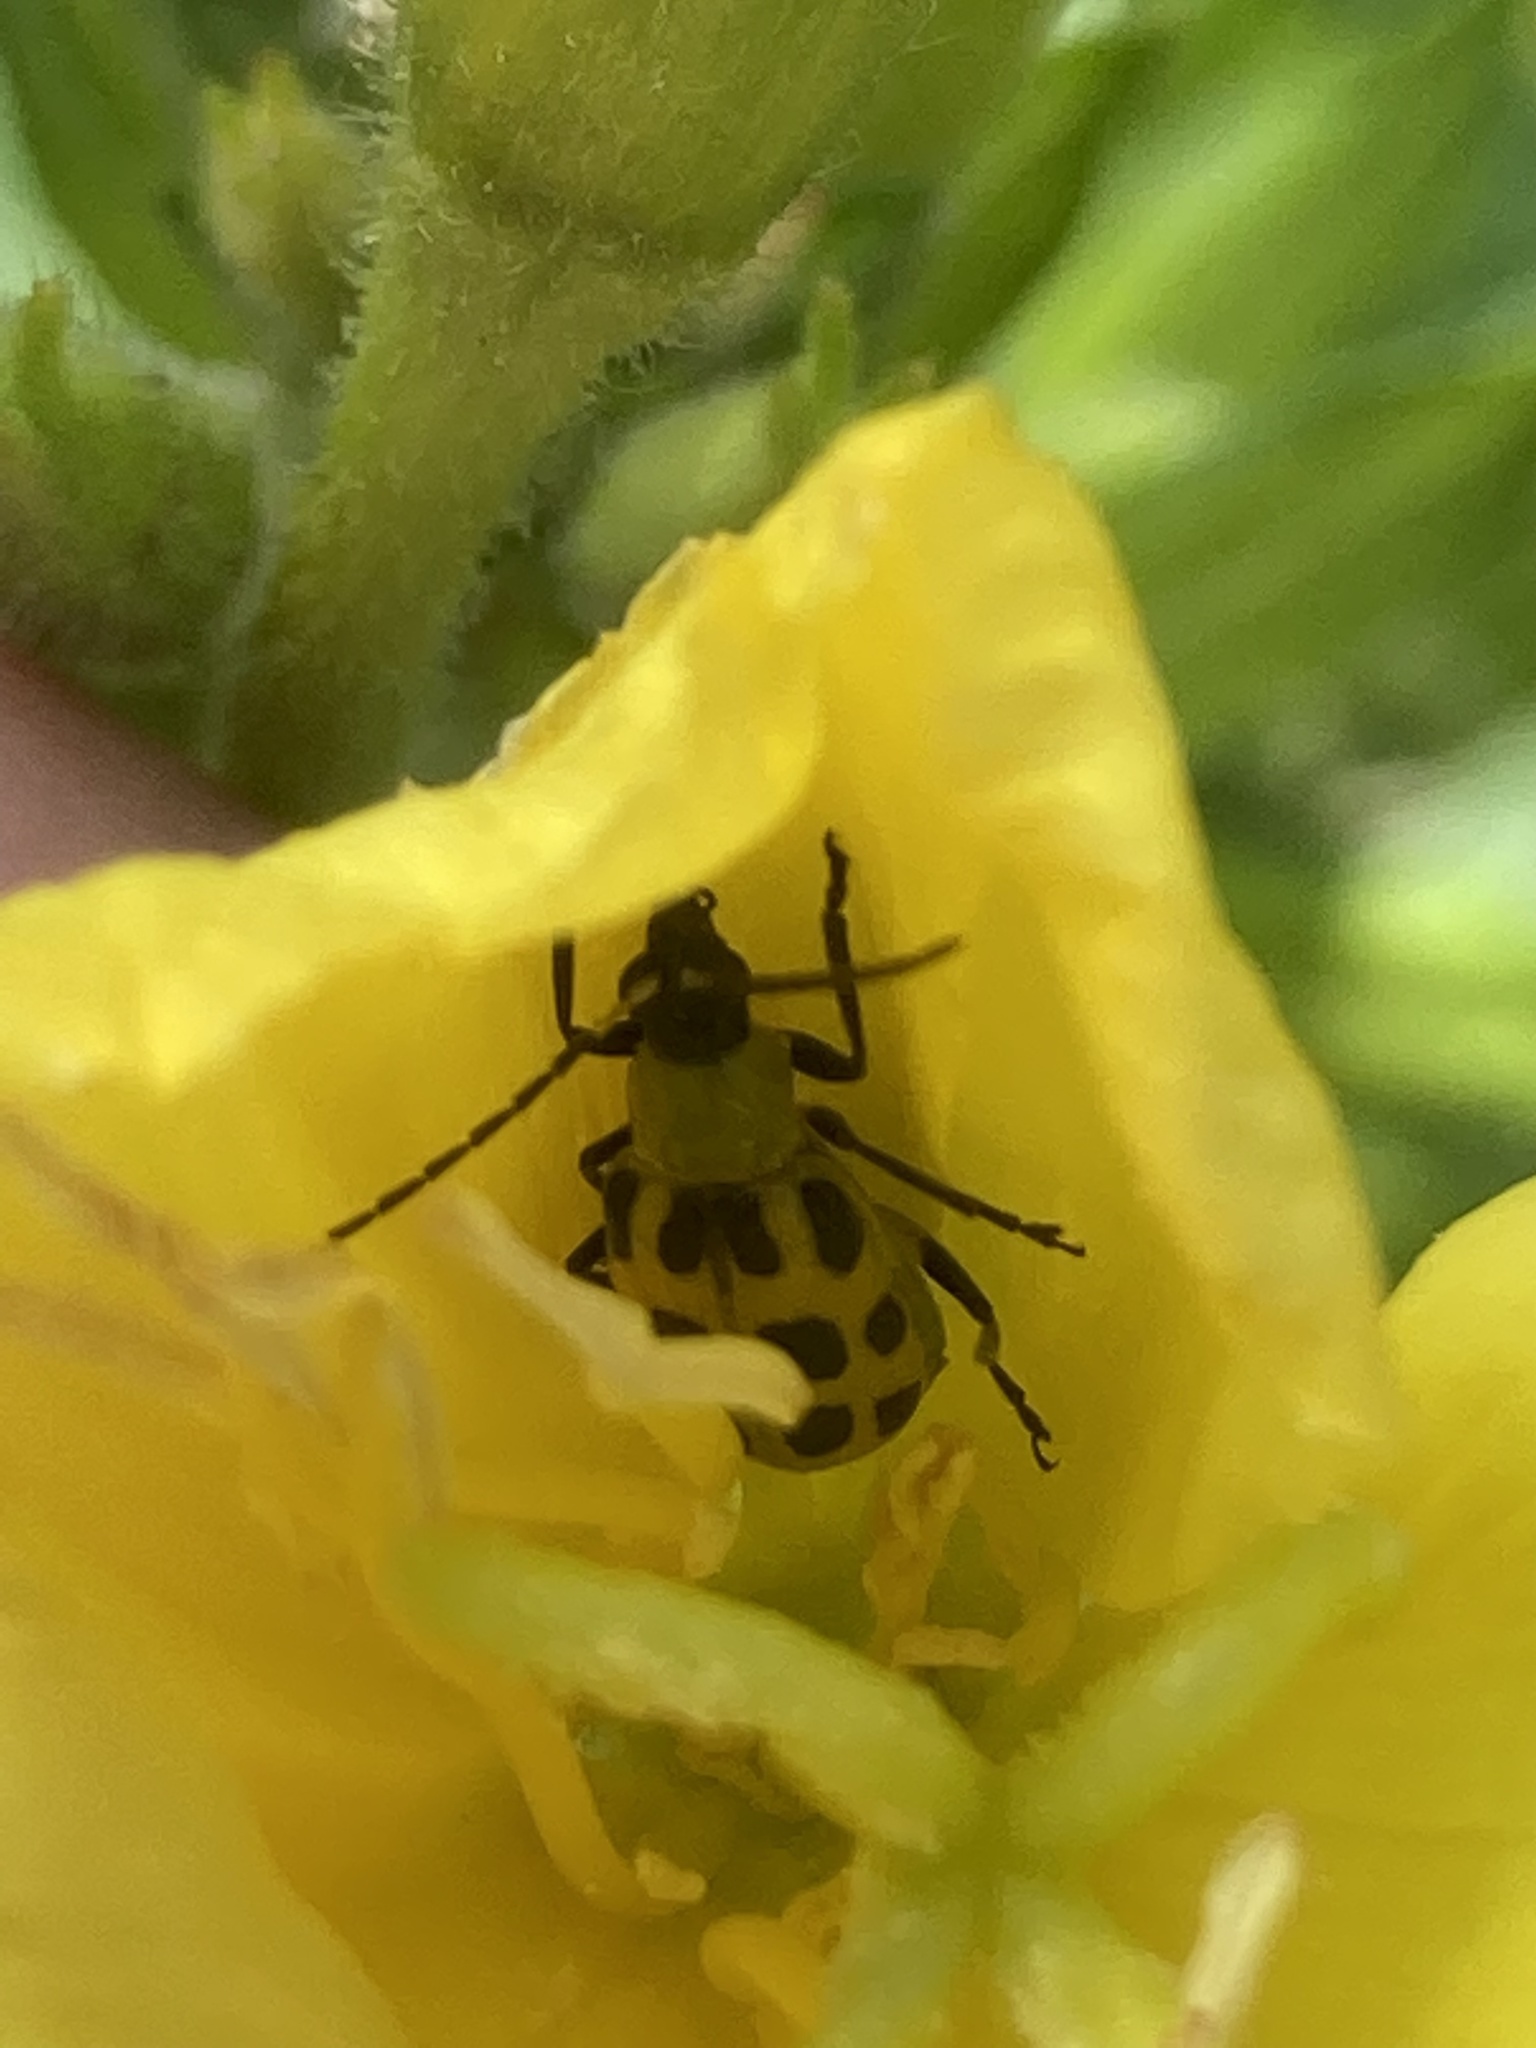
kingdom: Animalia
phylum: Arthropoda
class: Insecta
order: Coleoptera
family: Chrysomelidae
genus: Diabrotica
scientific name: Diabrotica undecimpunctata
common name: Spotted cucumber beetle
